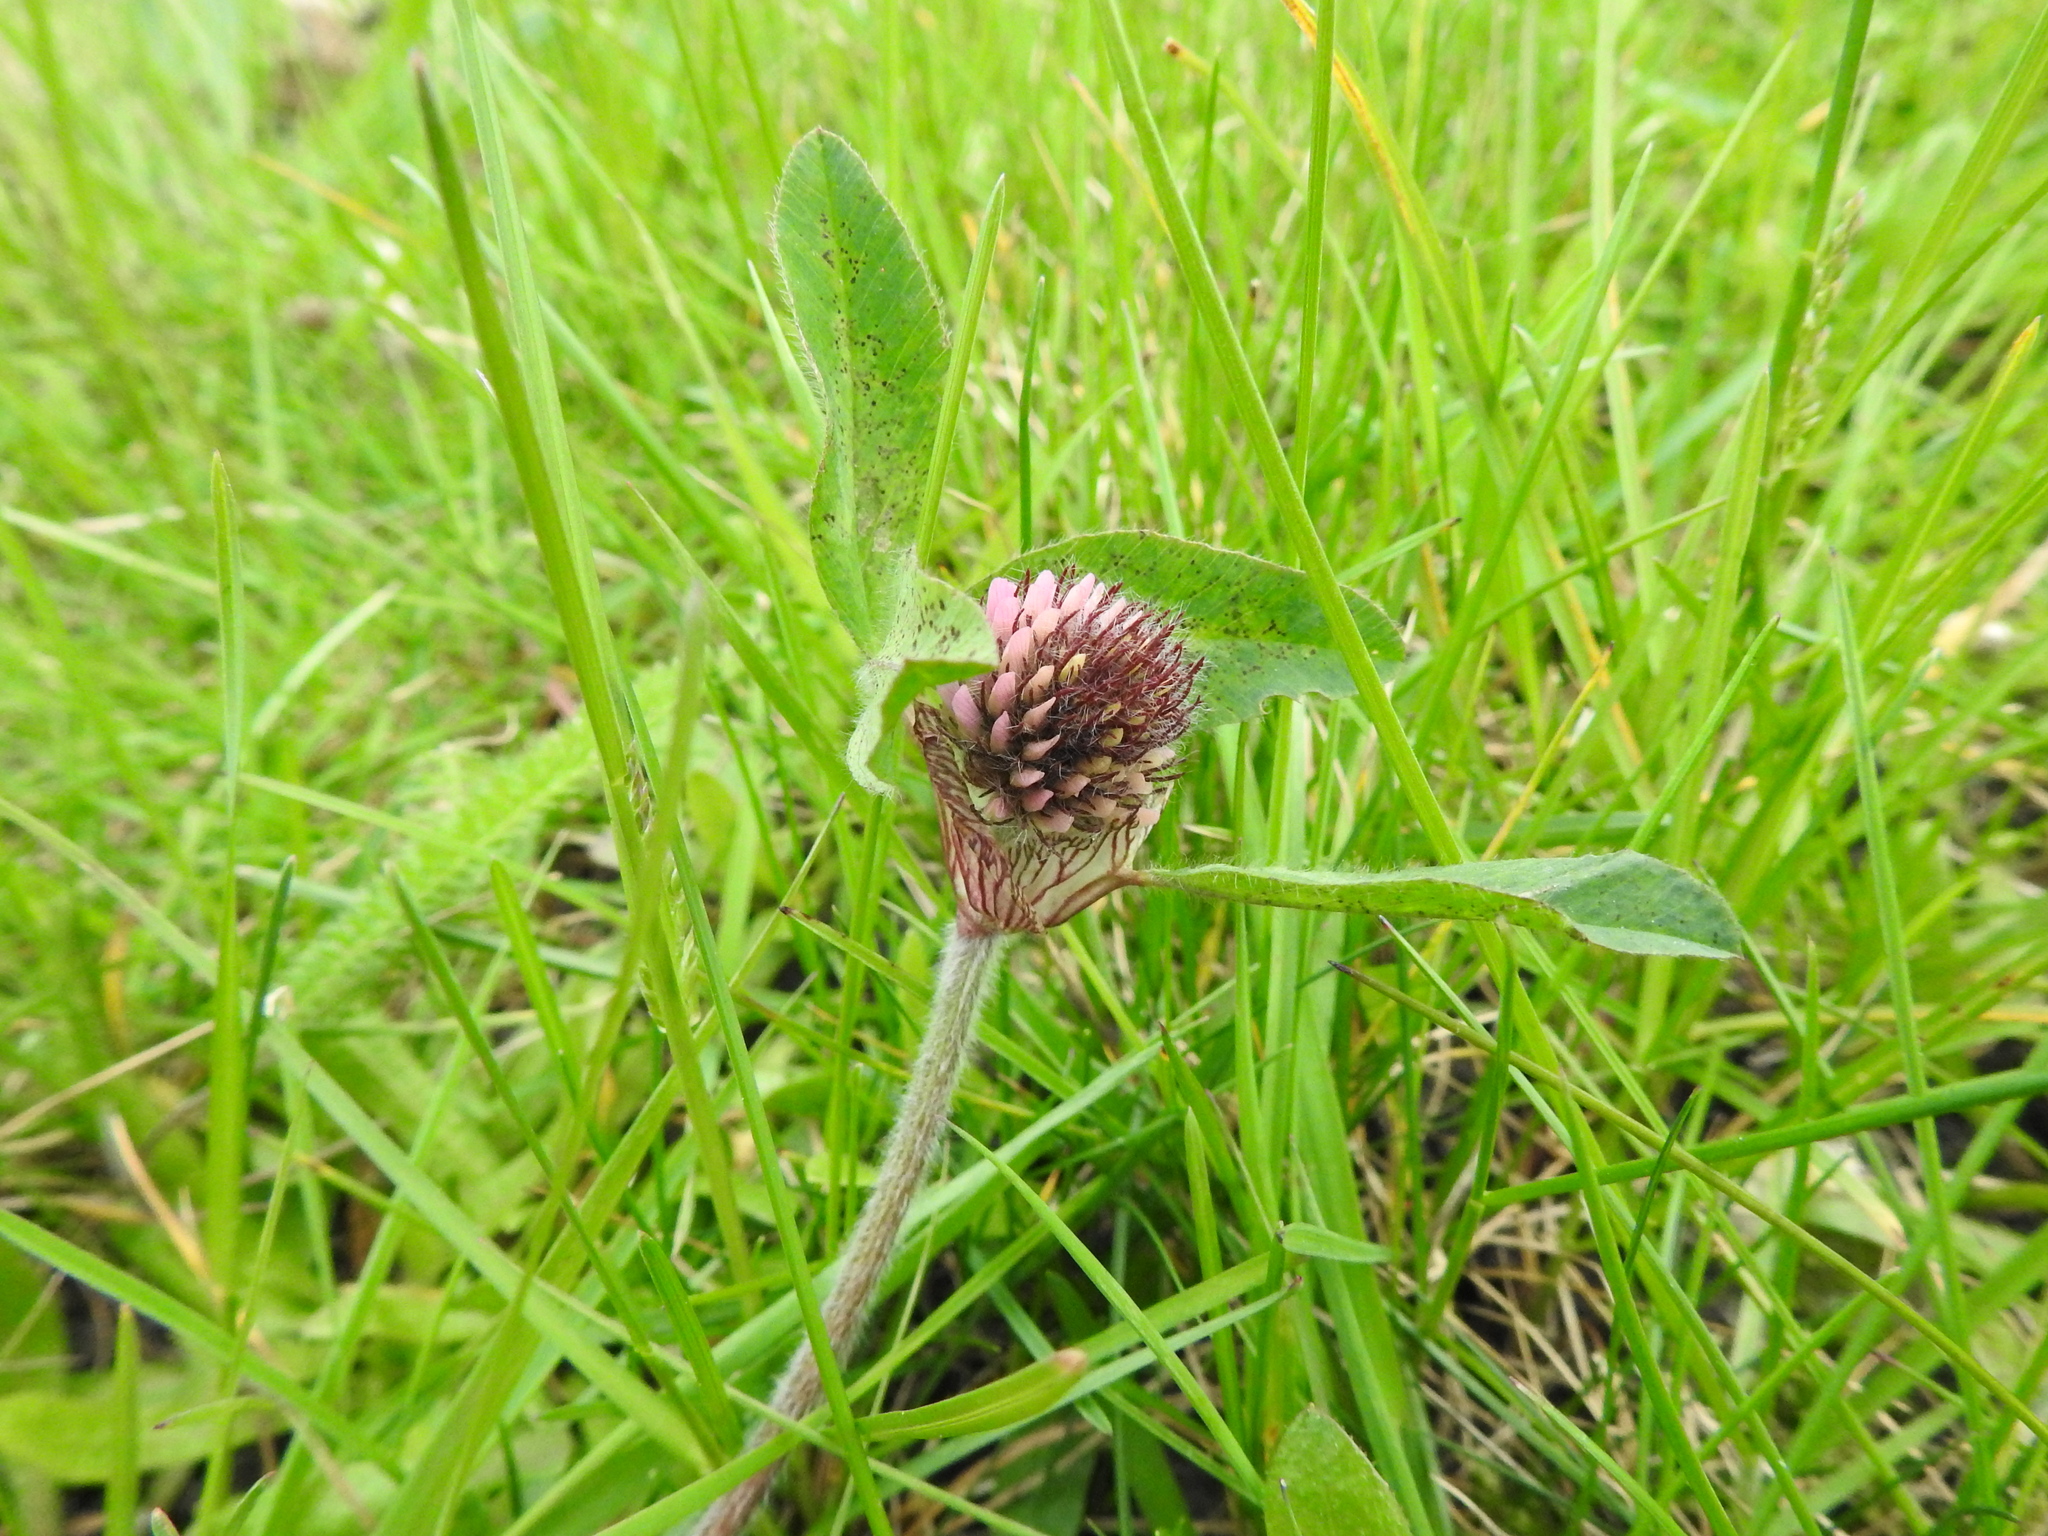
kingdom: Plantae
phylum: Tracheophyta
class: Magnoliopsida
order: Fabales
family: Fabaceae
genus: Trifolium
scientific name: Trifolium pratense
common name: Red clover
